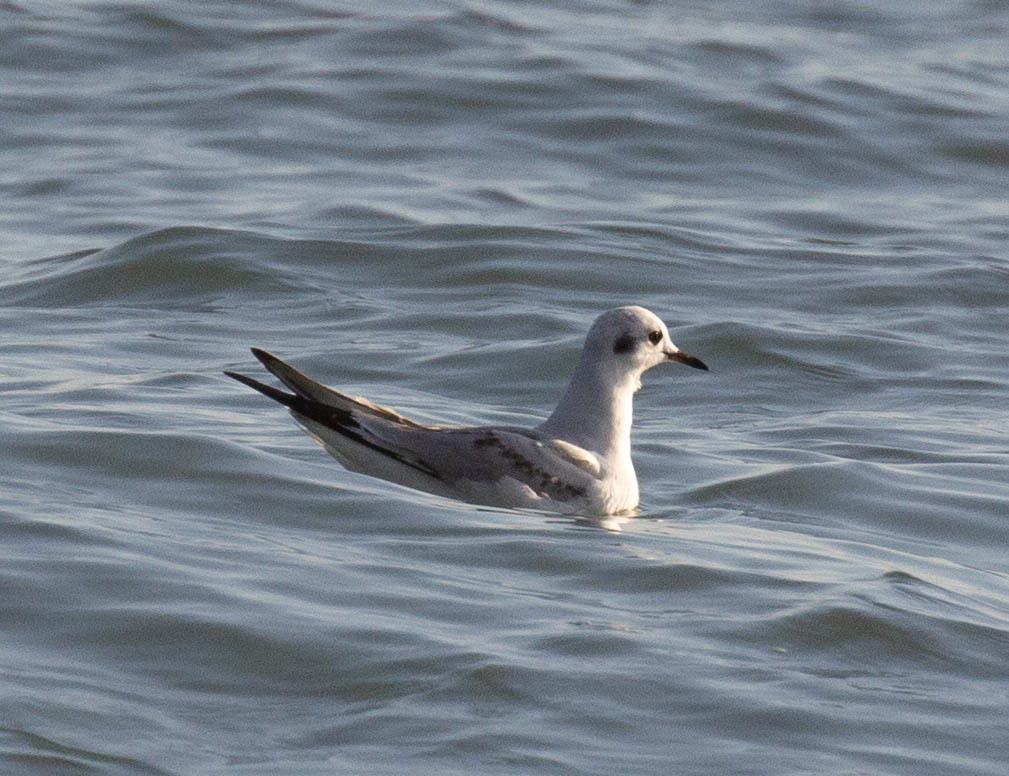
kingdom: Animalia
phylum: Chordata
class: Aves
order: Charadriiformes
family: Laridae
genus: Chroicocephalus
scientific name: Chroicocephalus philadelphia
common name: Bonaparte's gull
